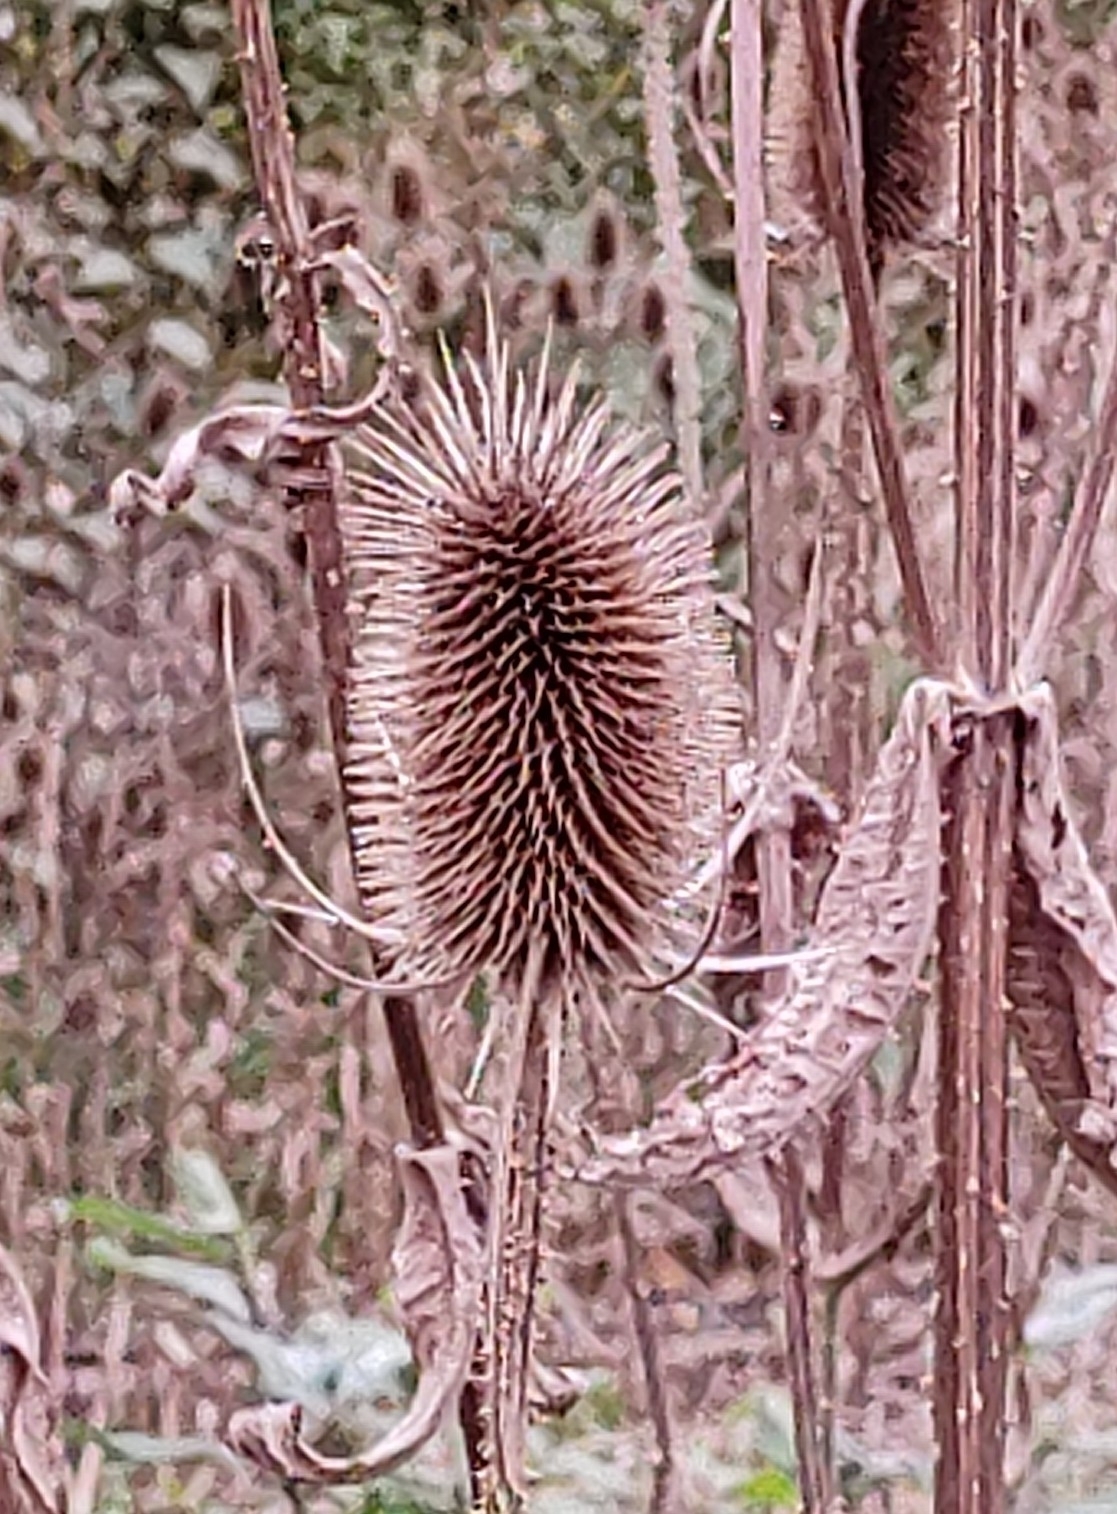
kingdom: Plantae
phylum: Tracheophyta
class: Magnoliopsida
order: Dipsacales
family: Caprifoliaceae
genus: Dipsacus
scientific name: Dipsacus fullonum
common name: Teasel
